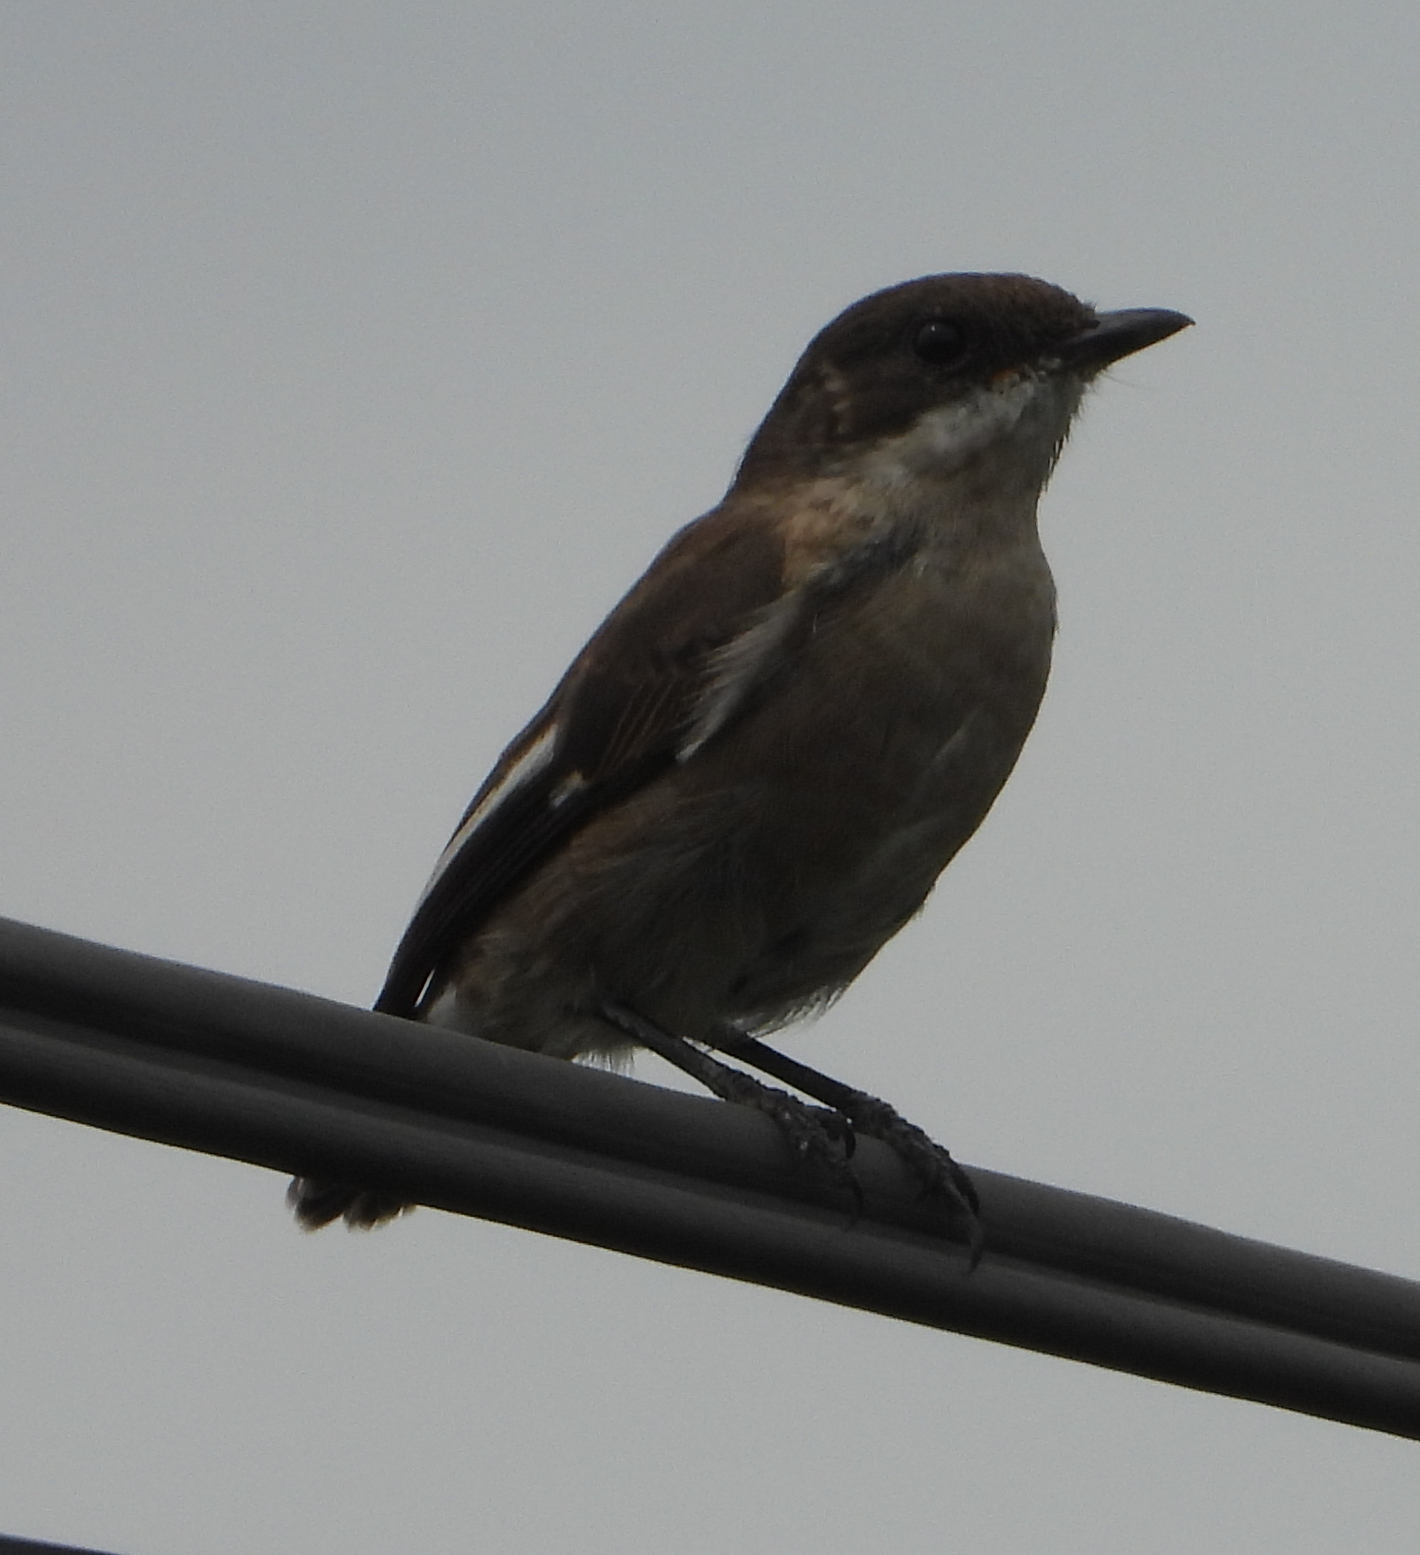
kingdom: Animalia
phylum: Chordata
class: Aves
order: Passeriformes
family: Muscicapidae
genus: Sigelus
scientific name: Sigelus silens
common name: Fiscal flycatcher
